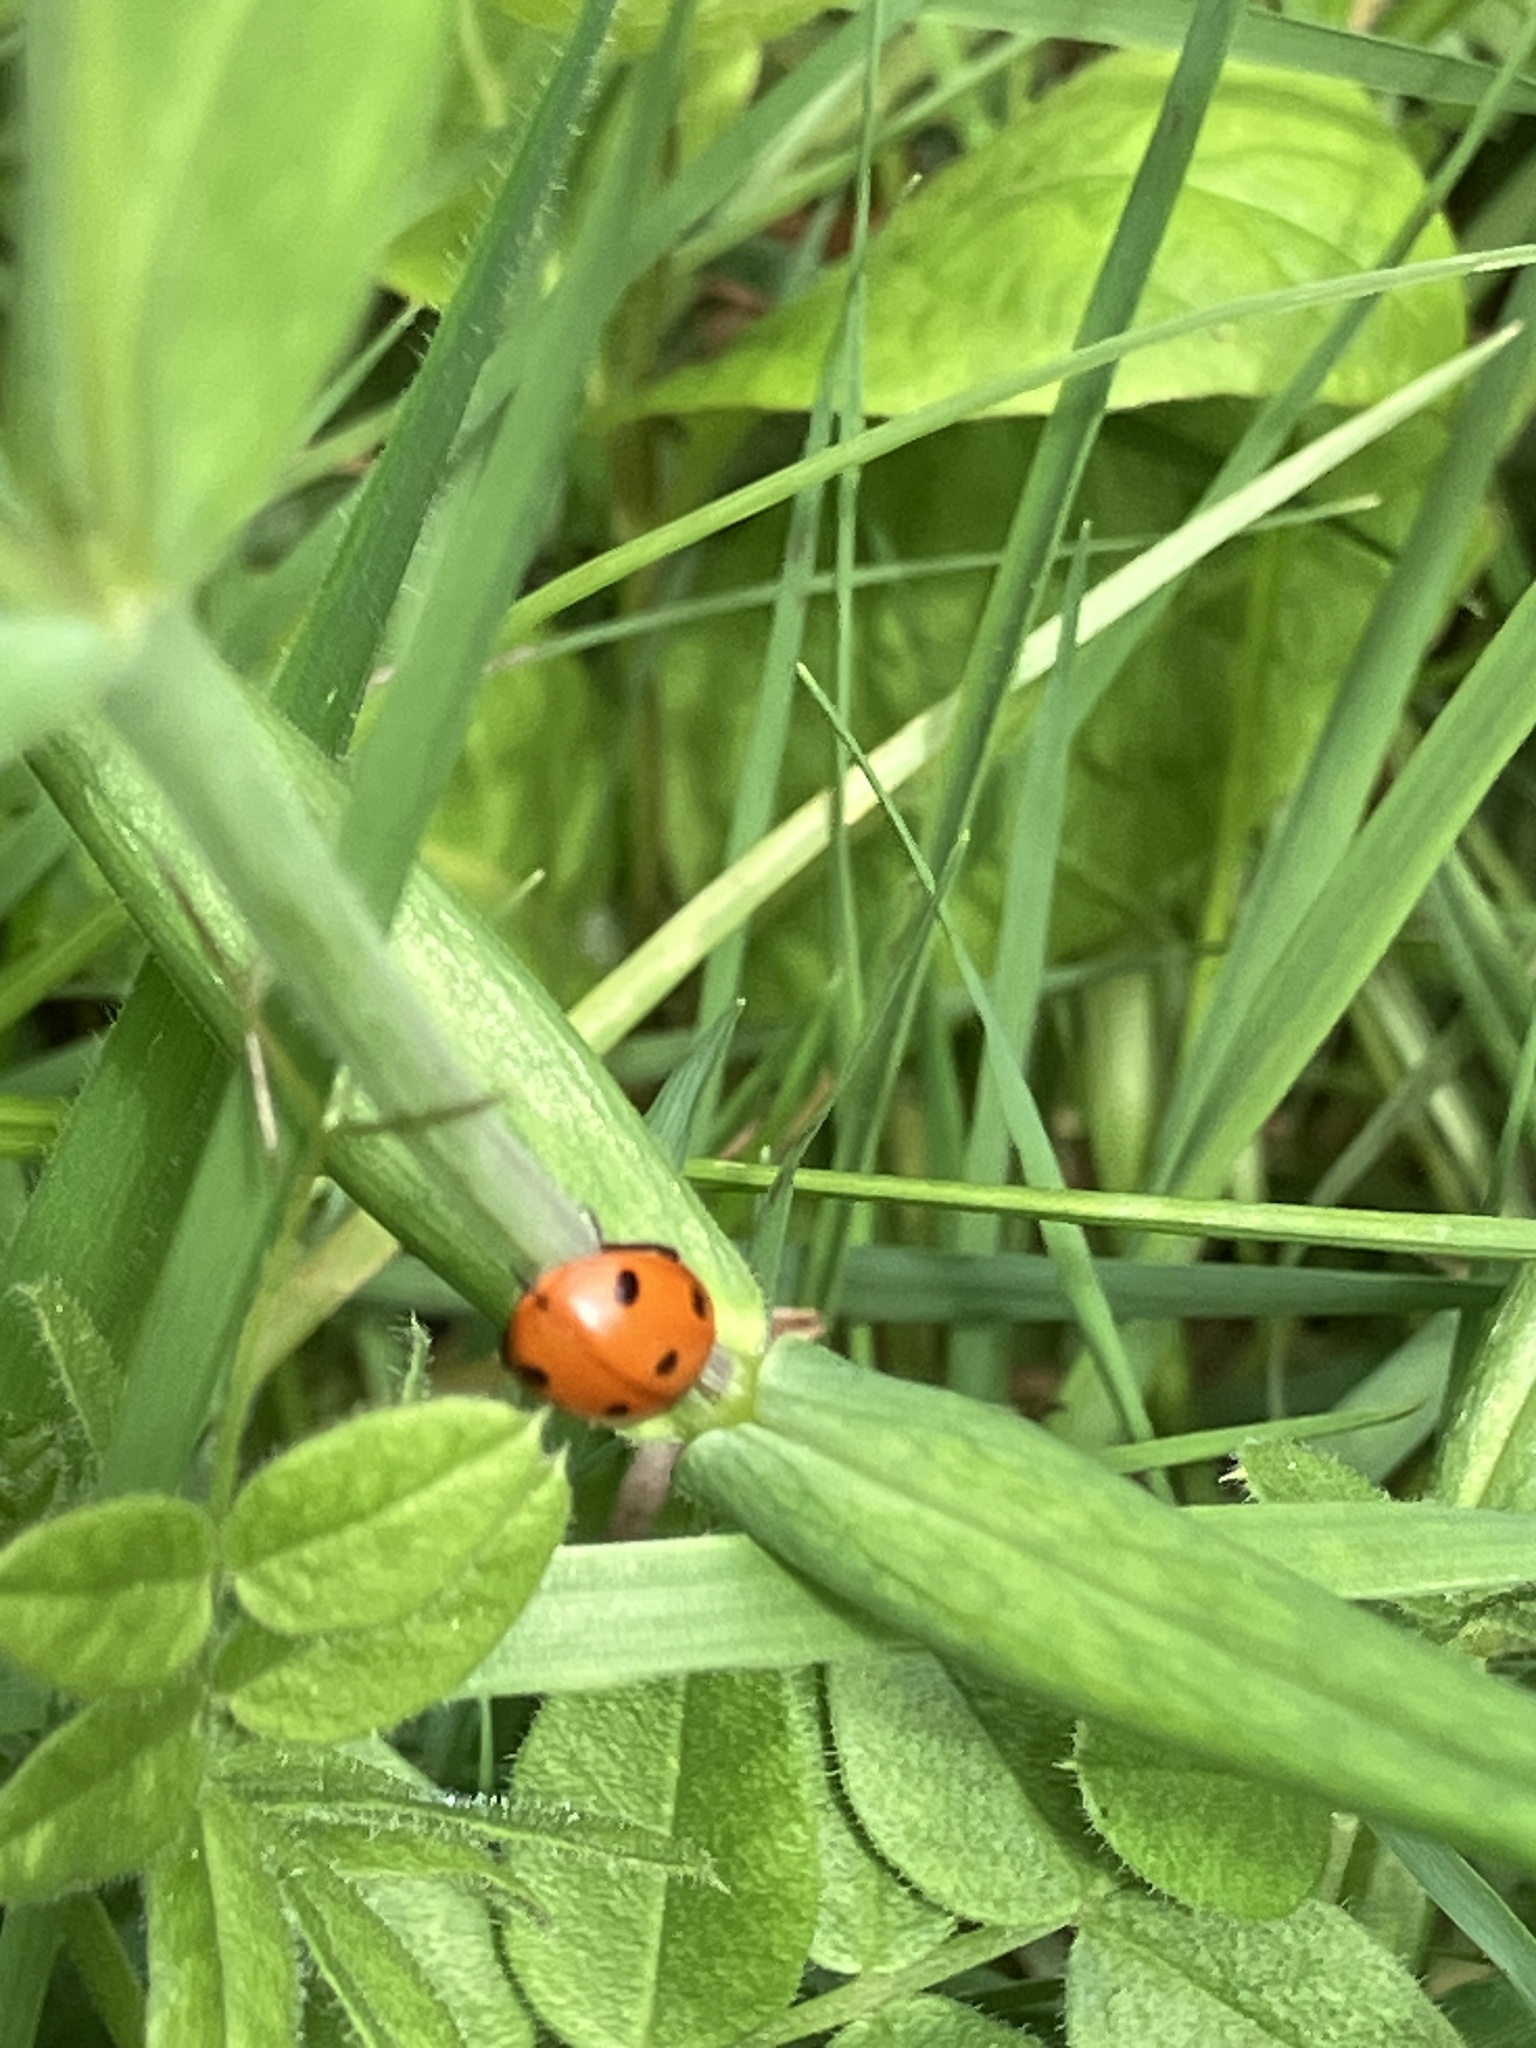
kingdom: Animalia
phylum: Arthropoda
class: Insecta
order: Coleoptera
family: Coccinellidae
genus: Coccinella
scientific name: Coccinella septempunctata
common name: Sevenspotted lady beetle
